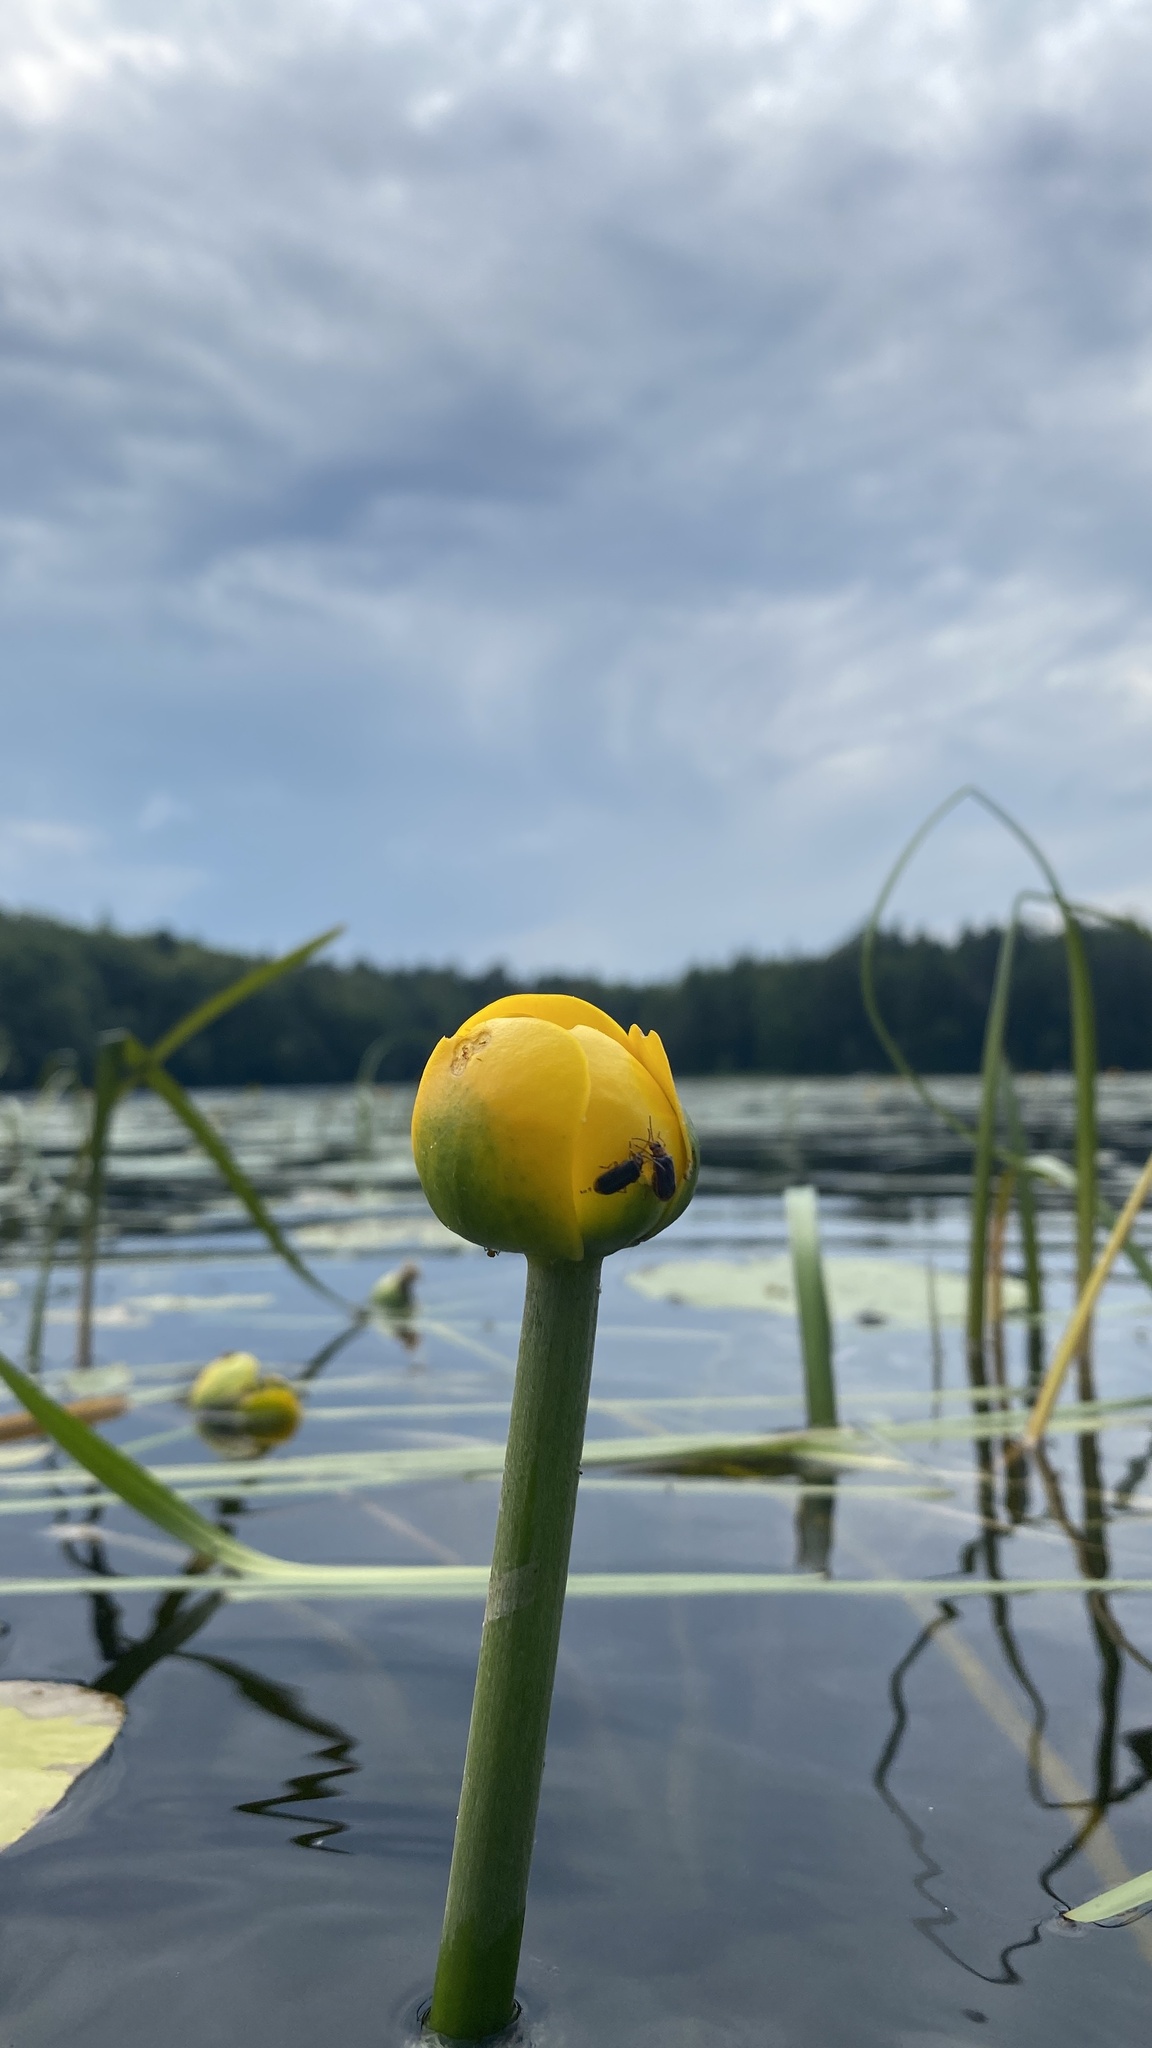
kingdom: Plantae
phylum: Tracheophyta
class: Magnoliopsida
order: Nymphaeales
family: Nymphaeaceae
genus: Nuphar
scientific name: Nuphar lutea
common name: Yellow water-lily
